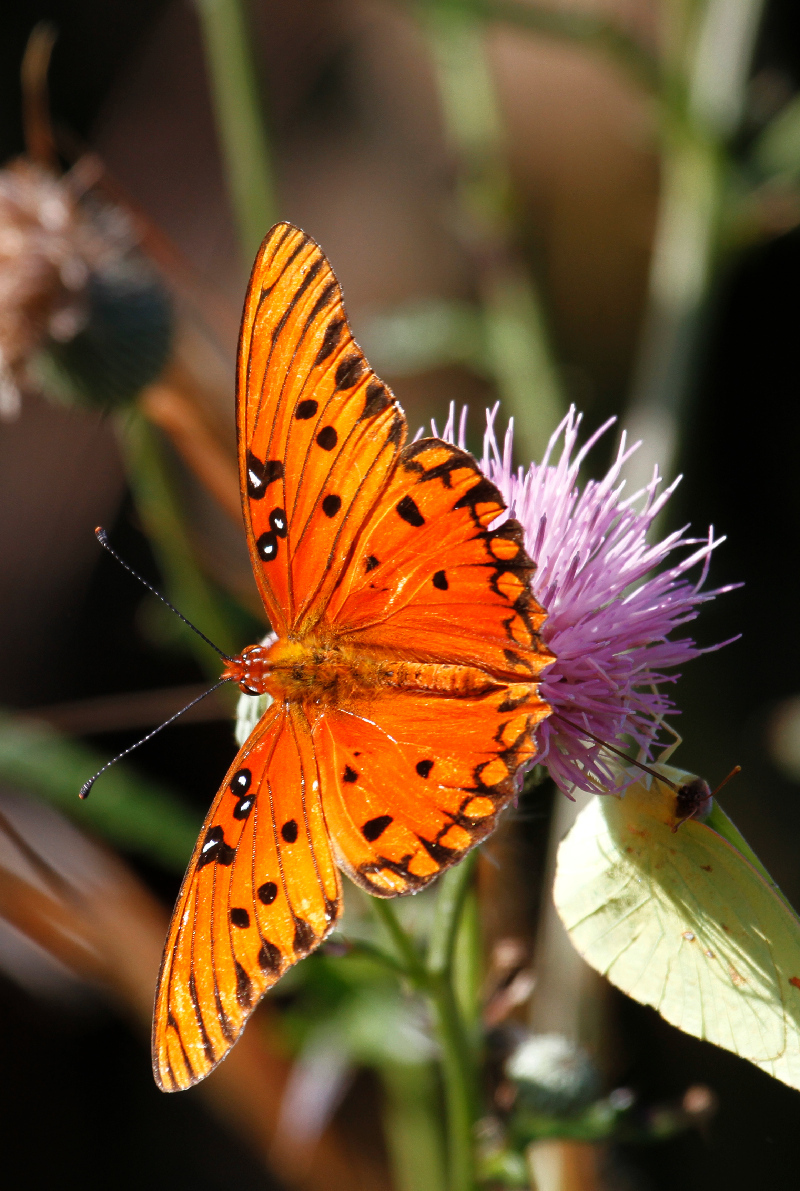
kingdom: Animalia
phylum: Arthropoda
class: Insecta
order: Lepidoptera
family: Nymphalidae
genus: Dione
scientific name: Dione vanillae
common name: Gulf fritillary
